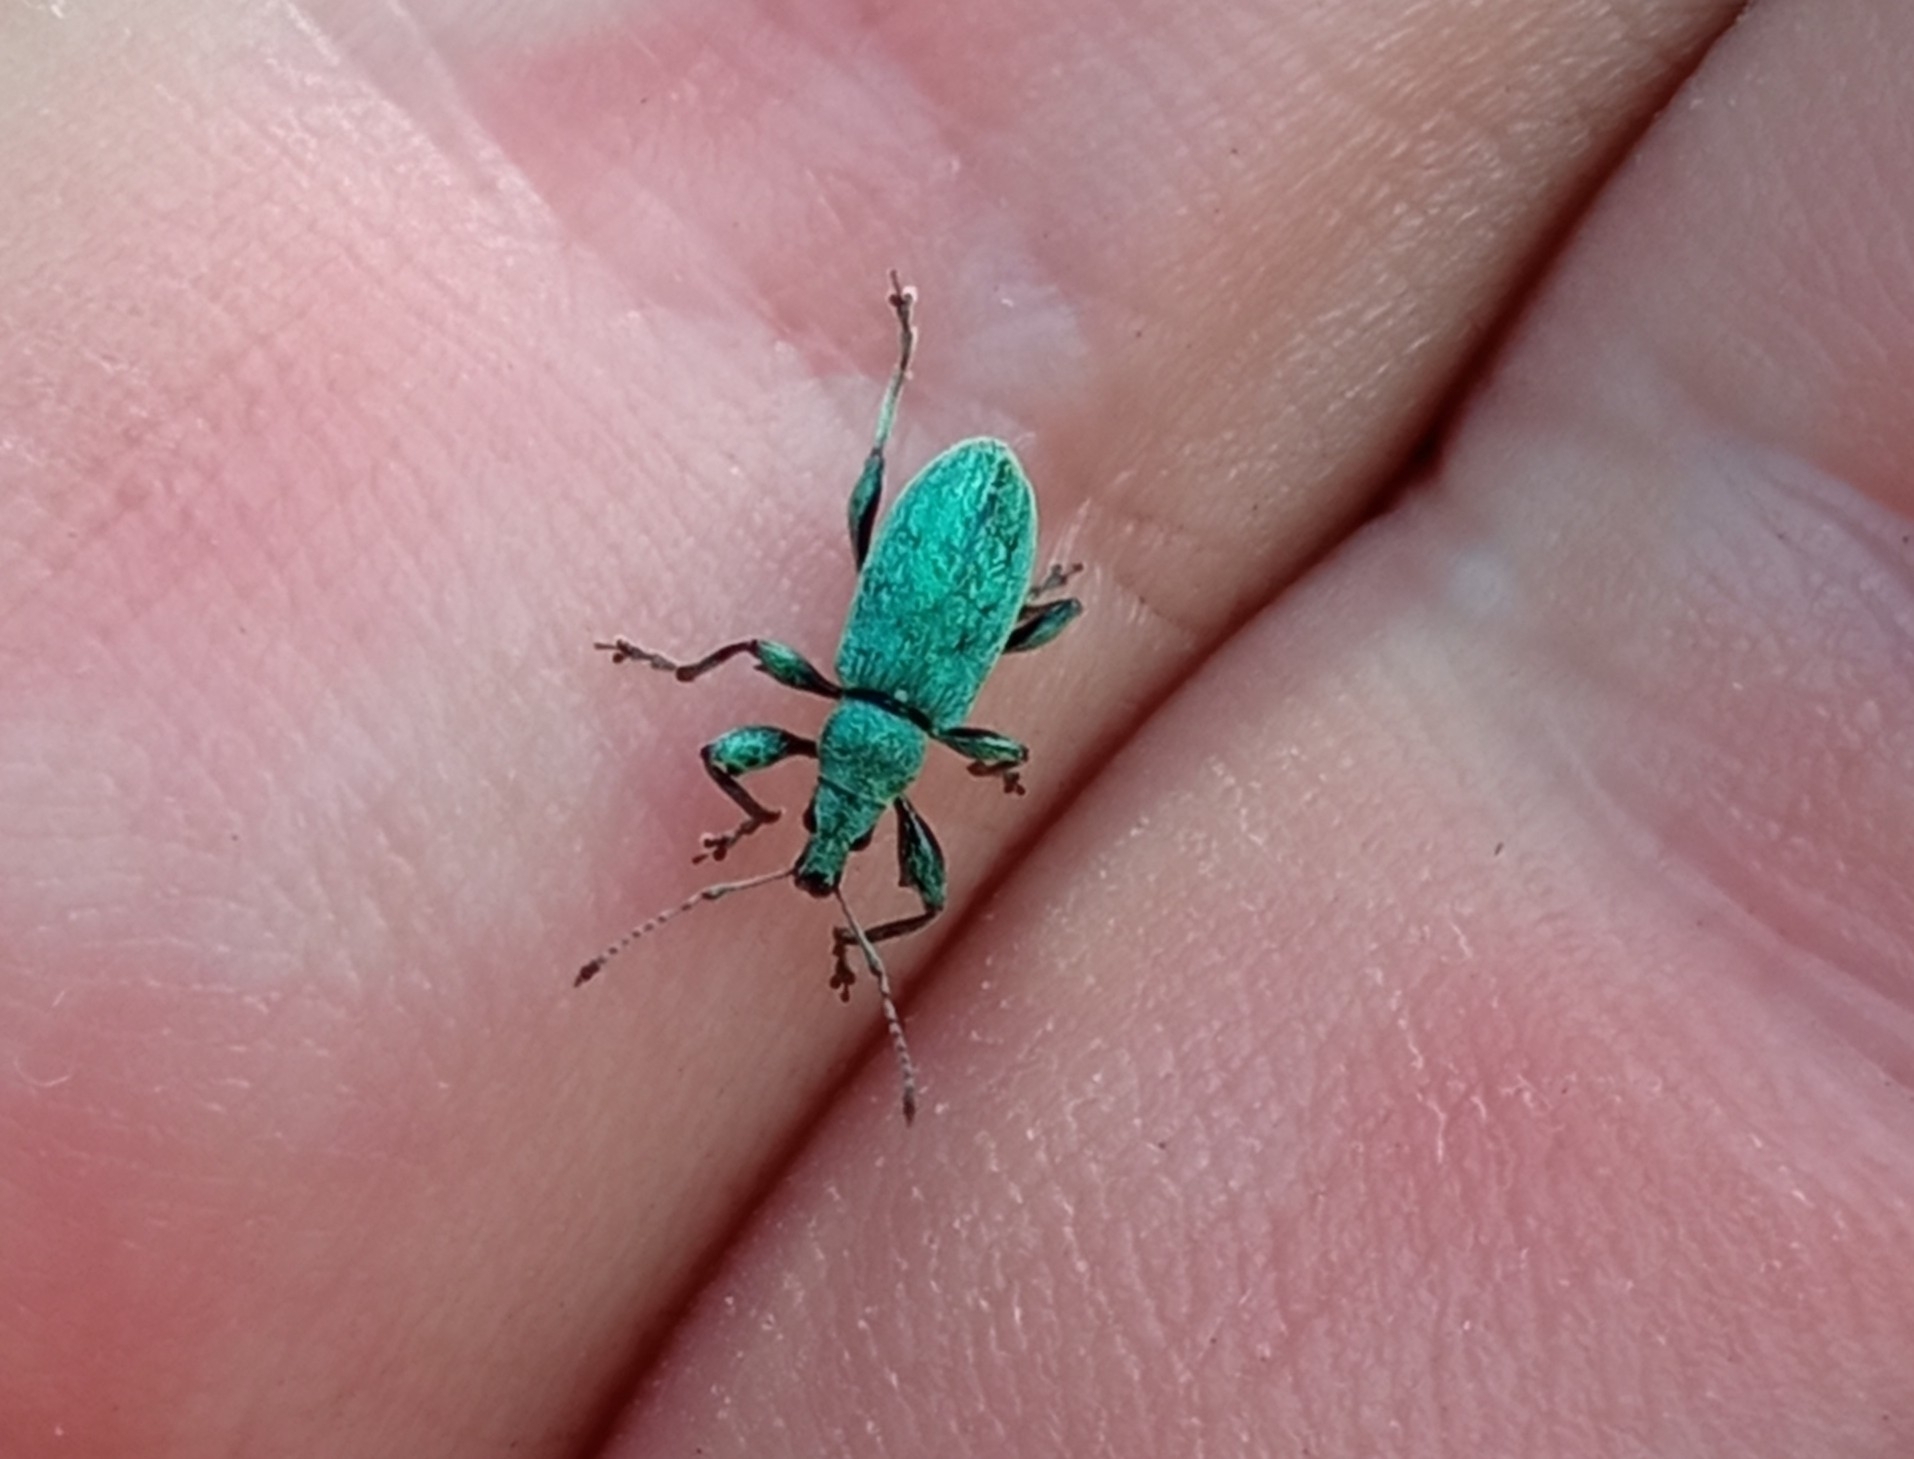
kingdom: Animalia
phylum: Arthropoda
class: Insecta
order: Coleoptera
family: Curculionidae
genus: Phyllobius
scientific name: Phyllobius pomaceus
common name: Green nettle weevil
